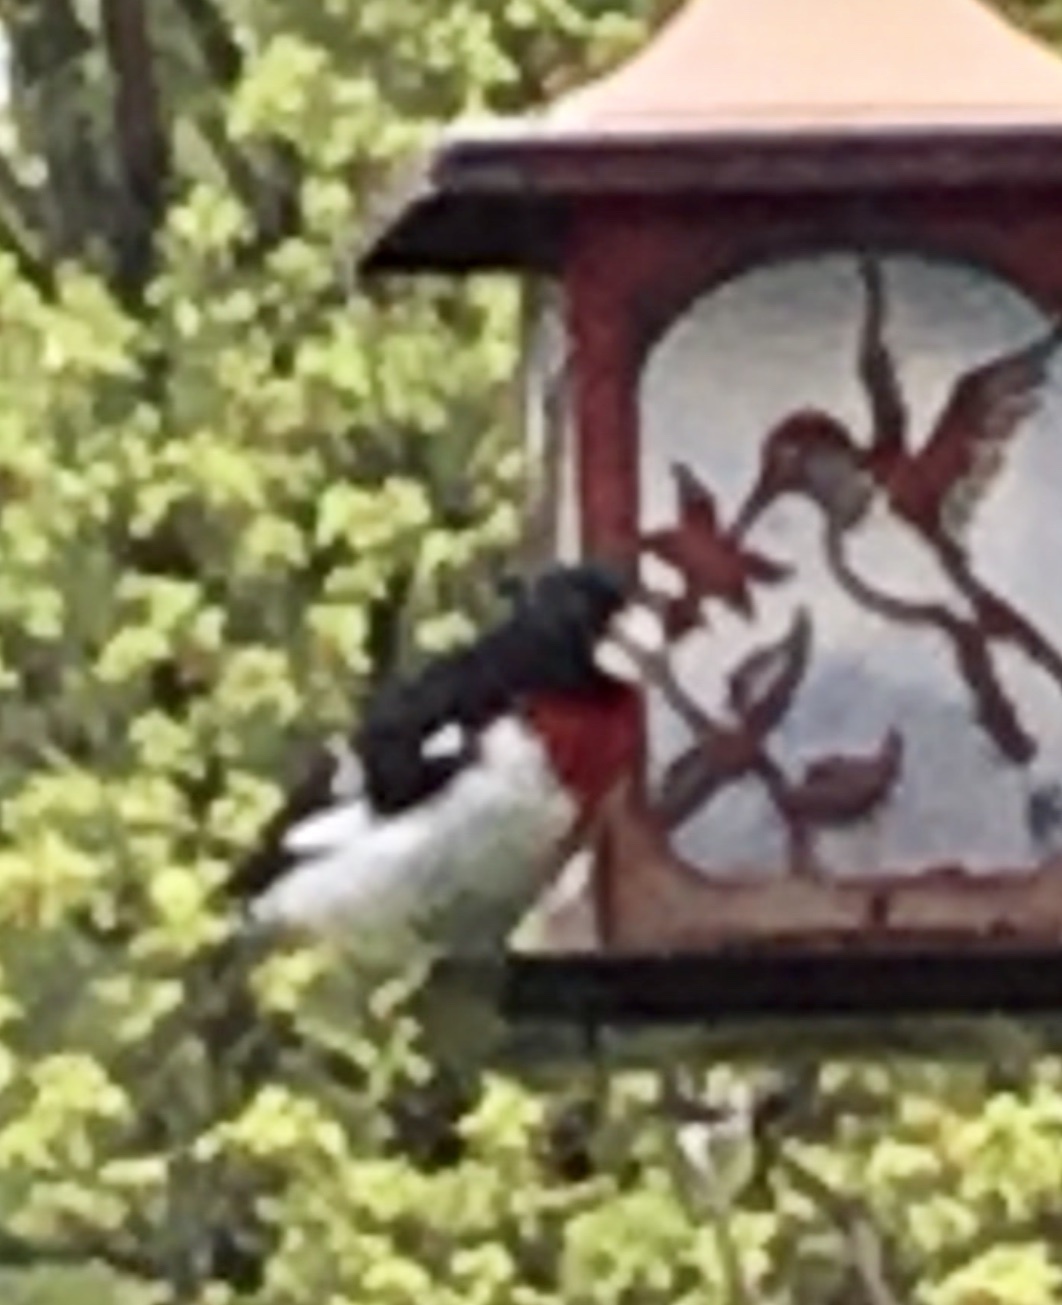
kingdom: Animalia
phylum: Chordata
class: Aves
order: Passeriformes
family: Cardinalidae
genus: Pheucticus
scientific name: Pheucticus ludovicianus
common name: Rose-breasted grosbeak
